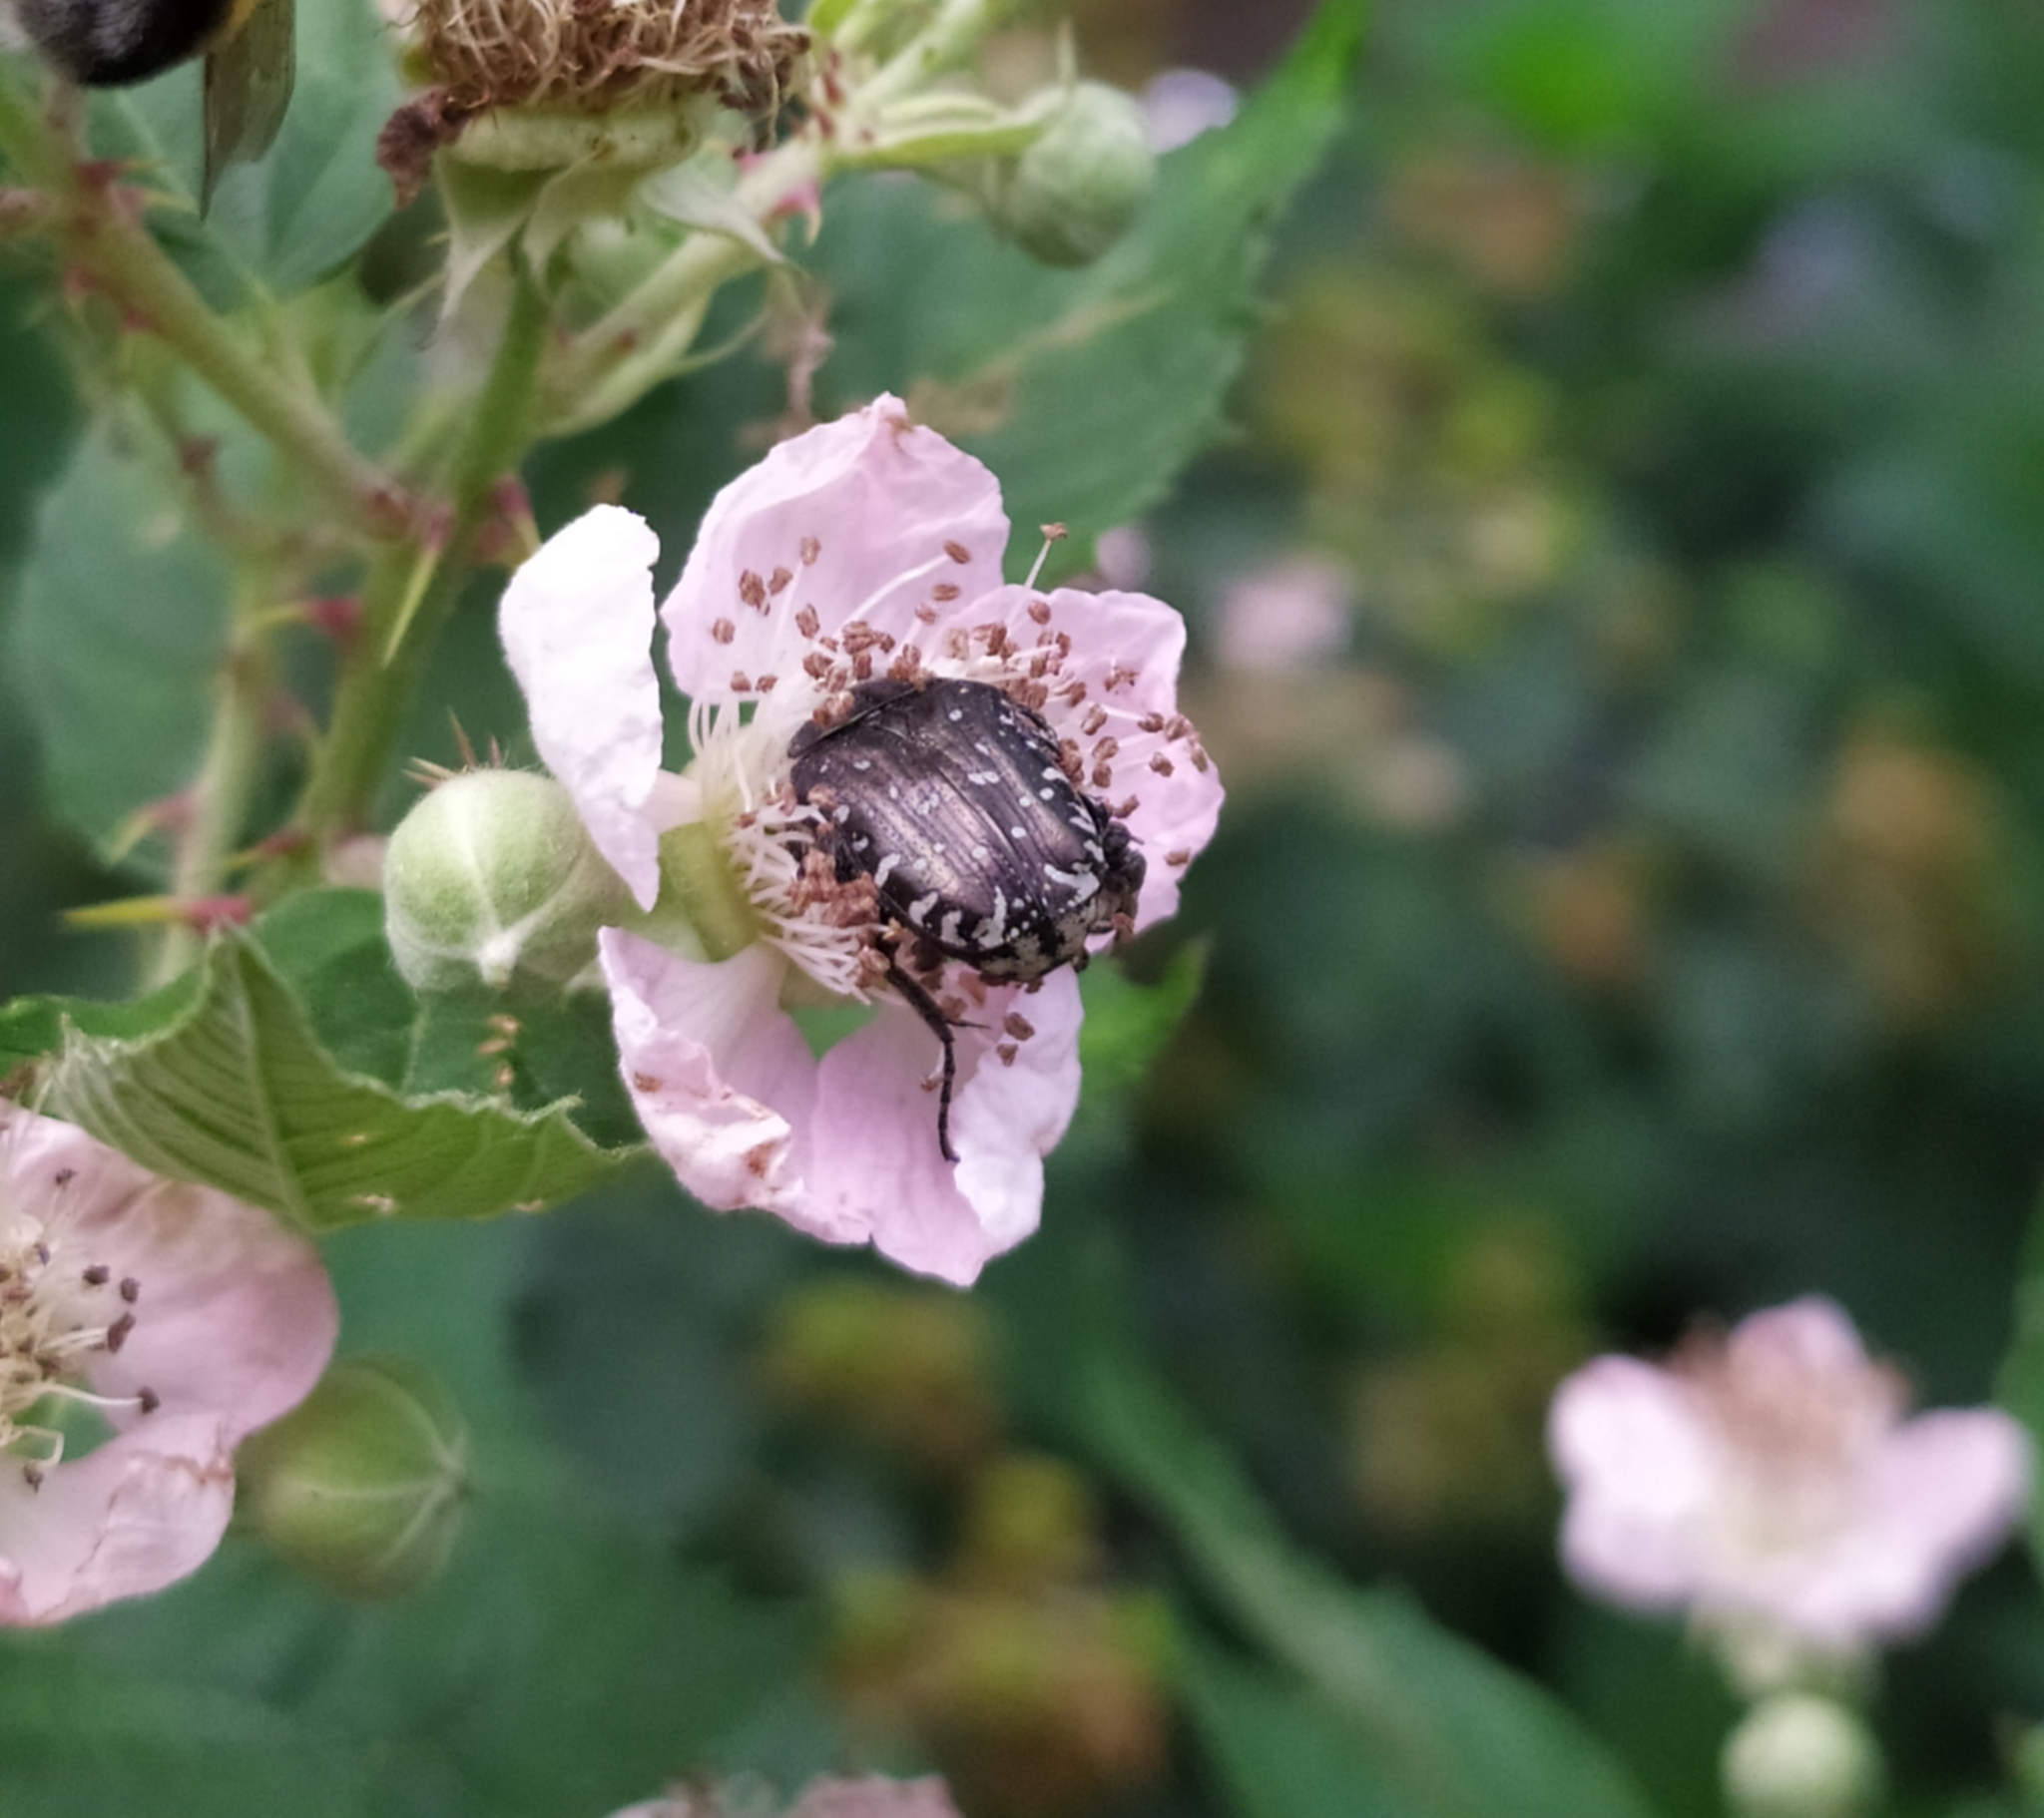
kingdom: Animalia
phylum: Arthropoda
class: Insecta
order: Coleoptera
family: Scarabaeidae
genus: Oxythyrea
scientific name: Oxythyrea funesta
